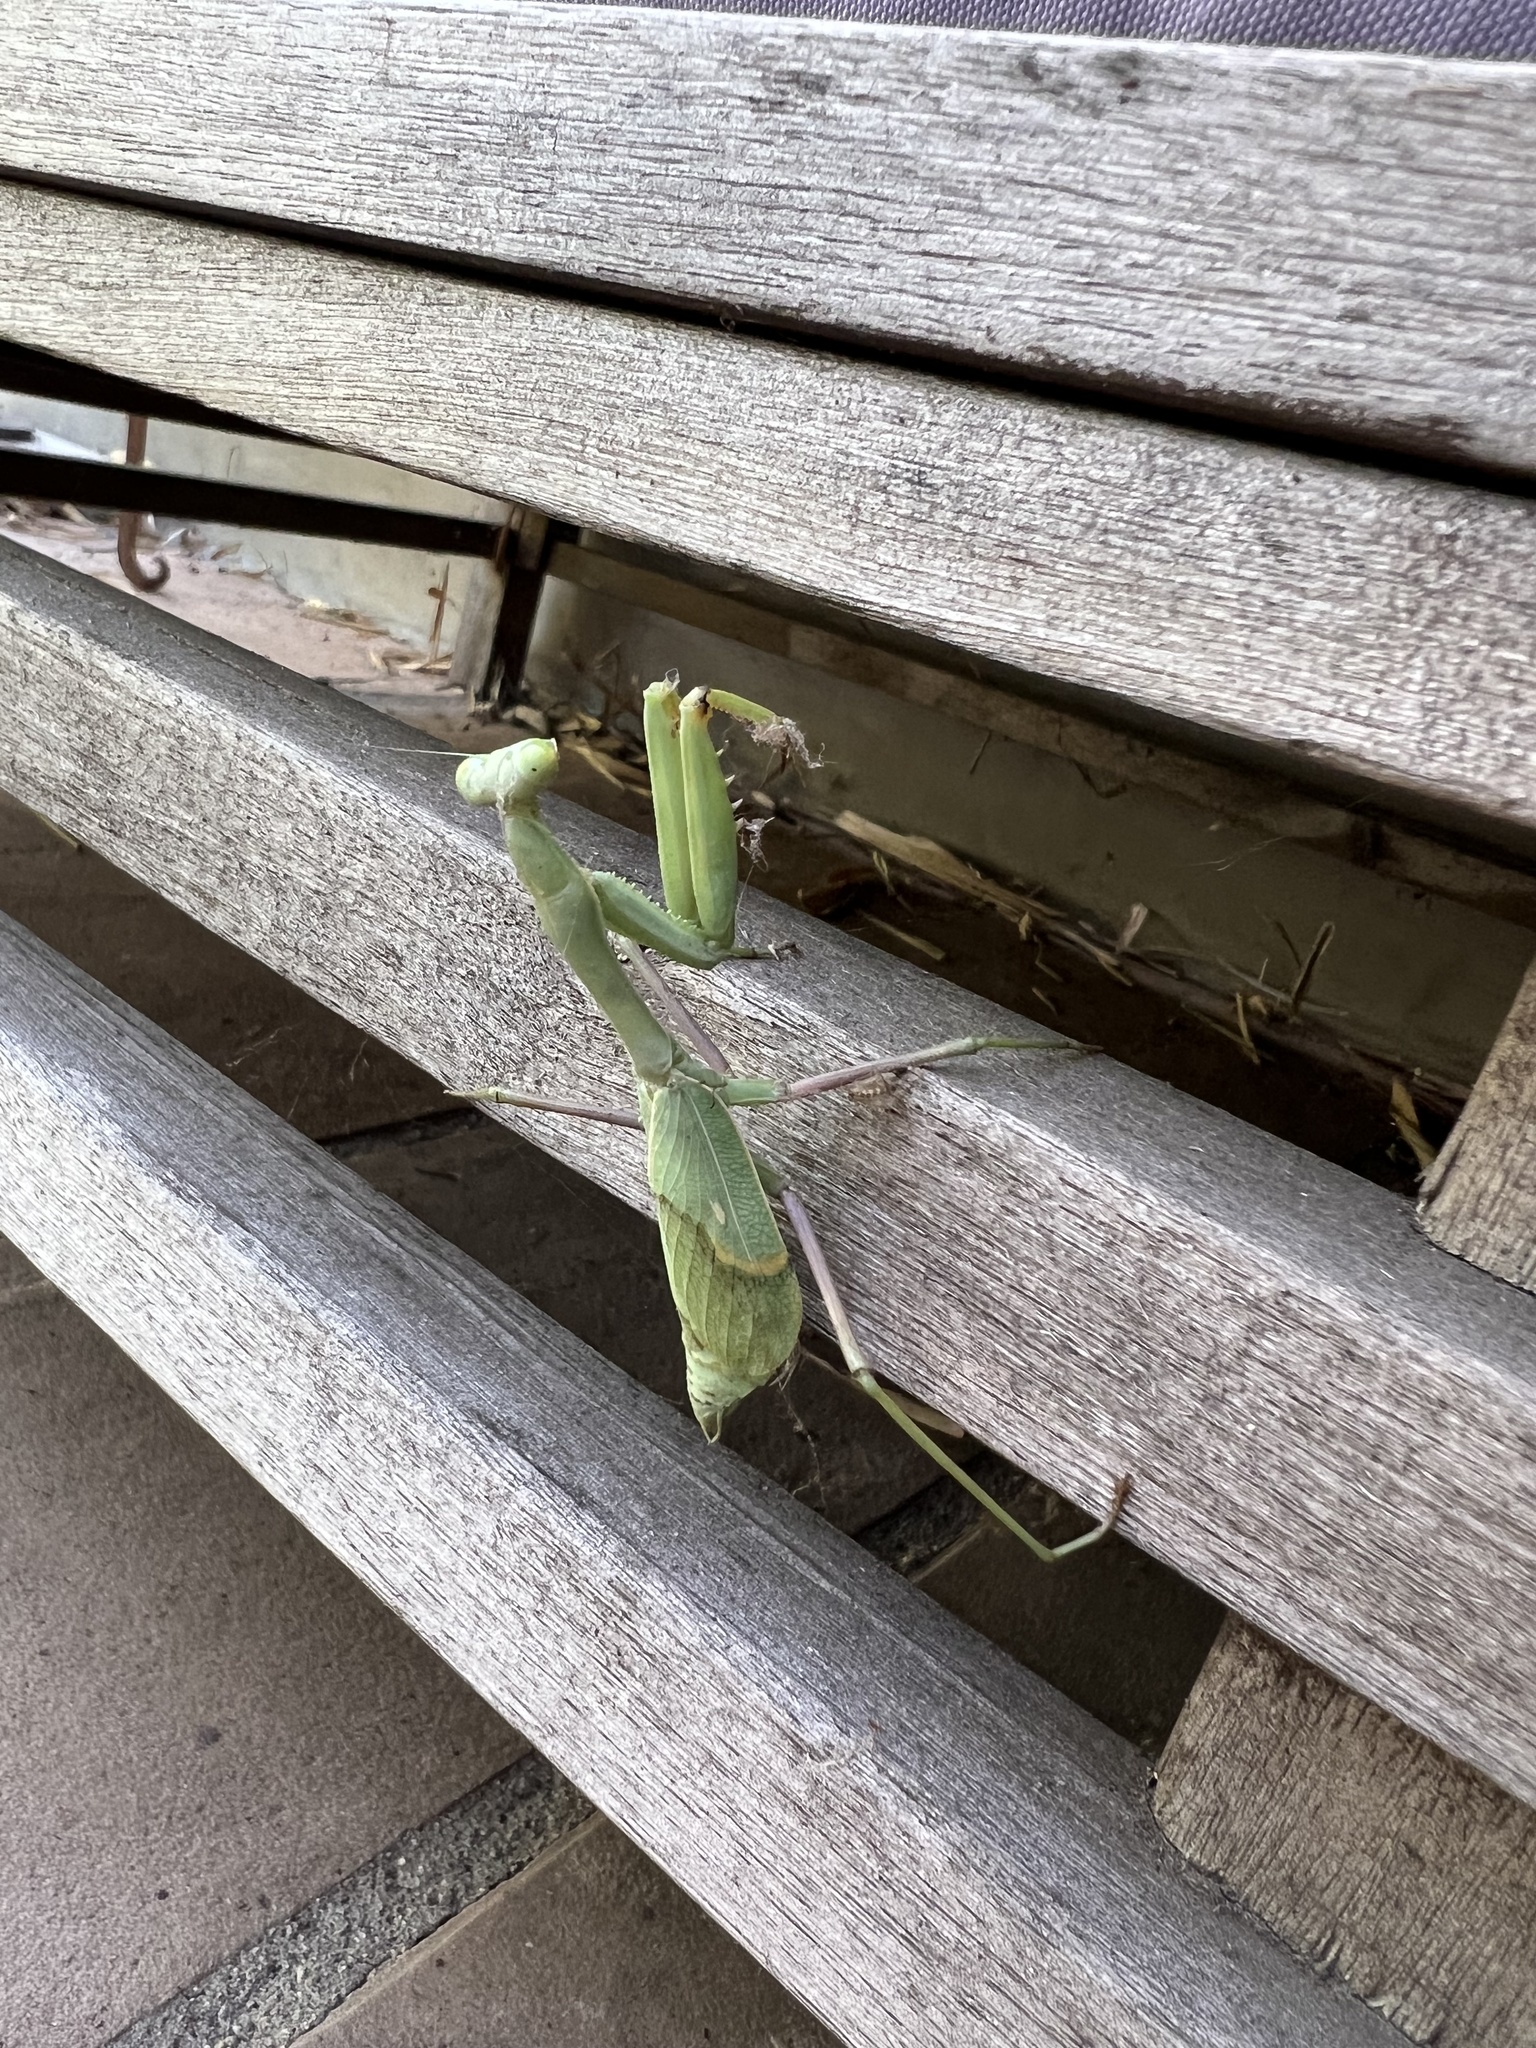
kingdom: Animalia
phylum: Arthropoda
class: Insecta
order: Mantodea
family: Mantidae
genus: Stagmomantis
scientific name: Stagmomantis limbata
